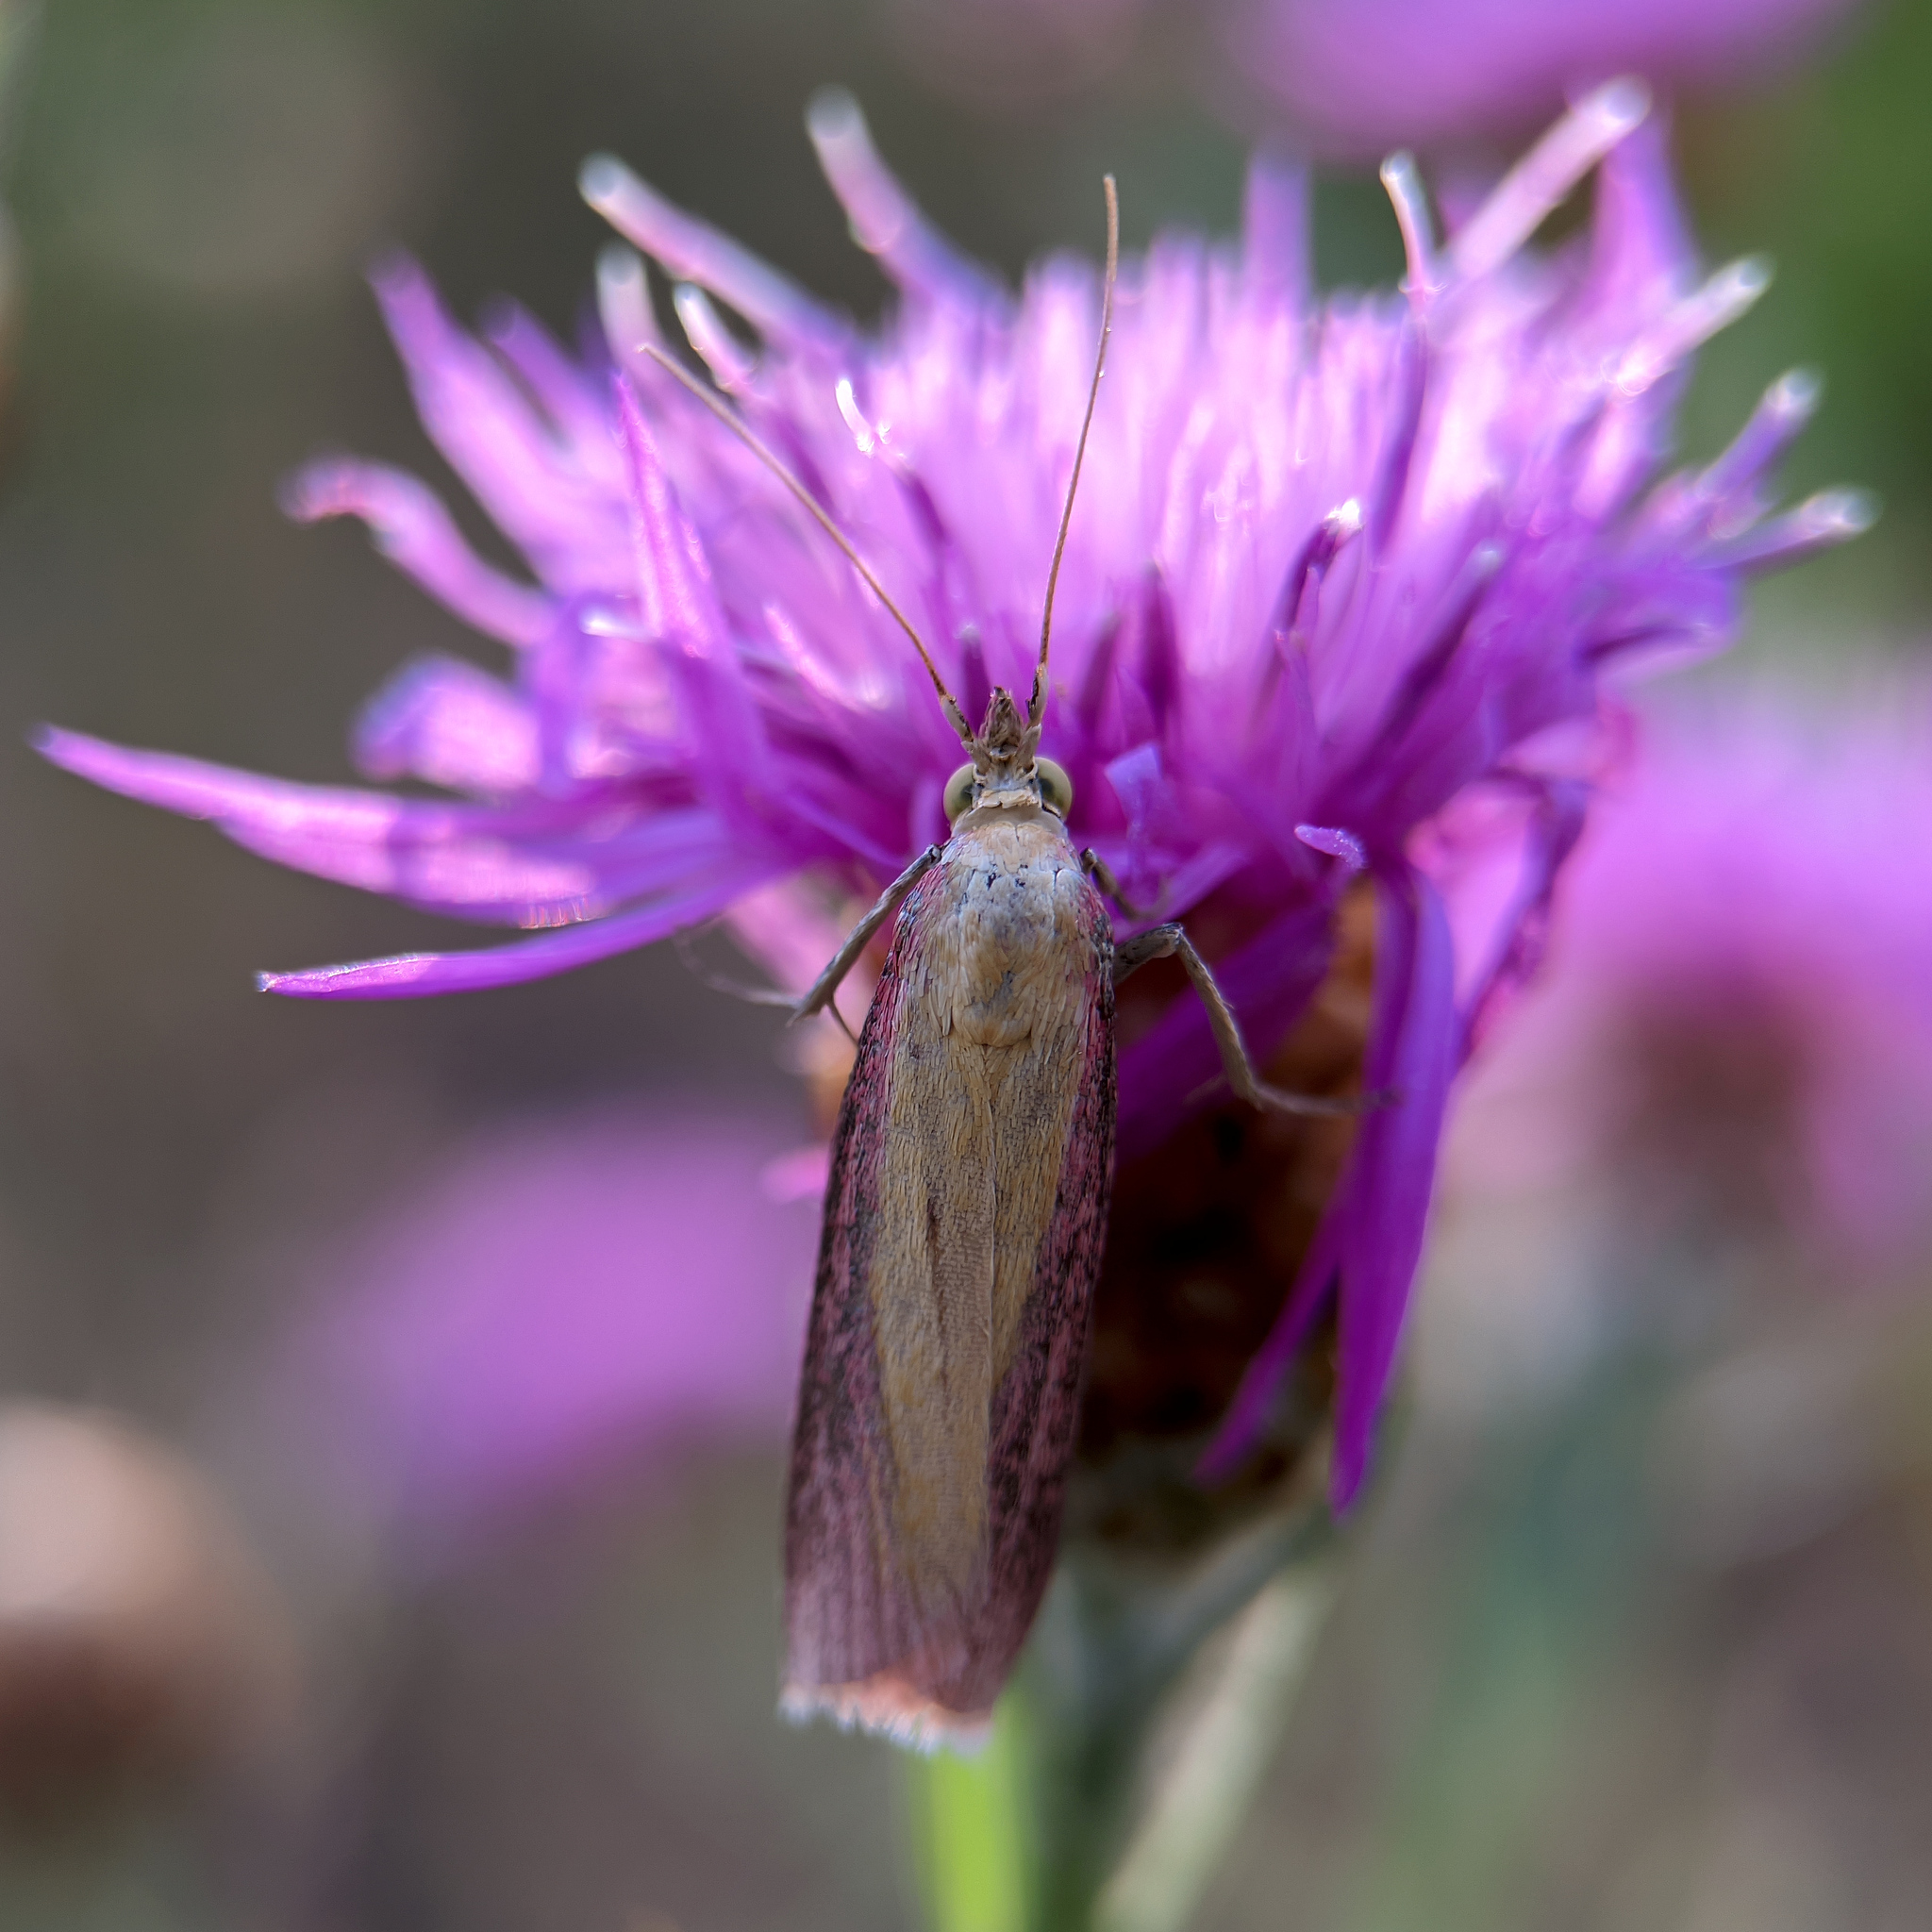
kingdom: Animalia
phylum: Arthropoda
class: Insecta
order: Lepidoptera
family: Pyralidae
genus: Oncocera
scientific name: Oncocera semirubella
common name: Rosy-striped knot-horn
